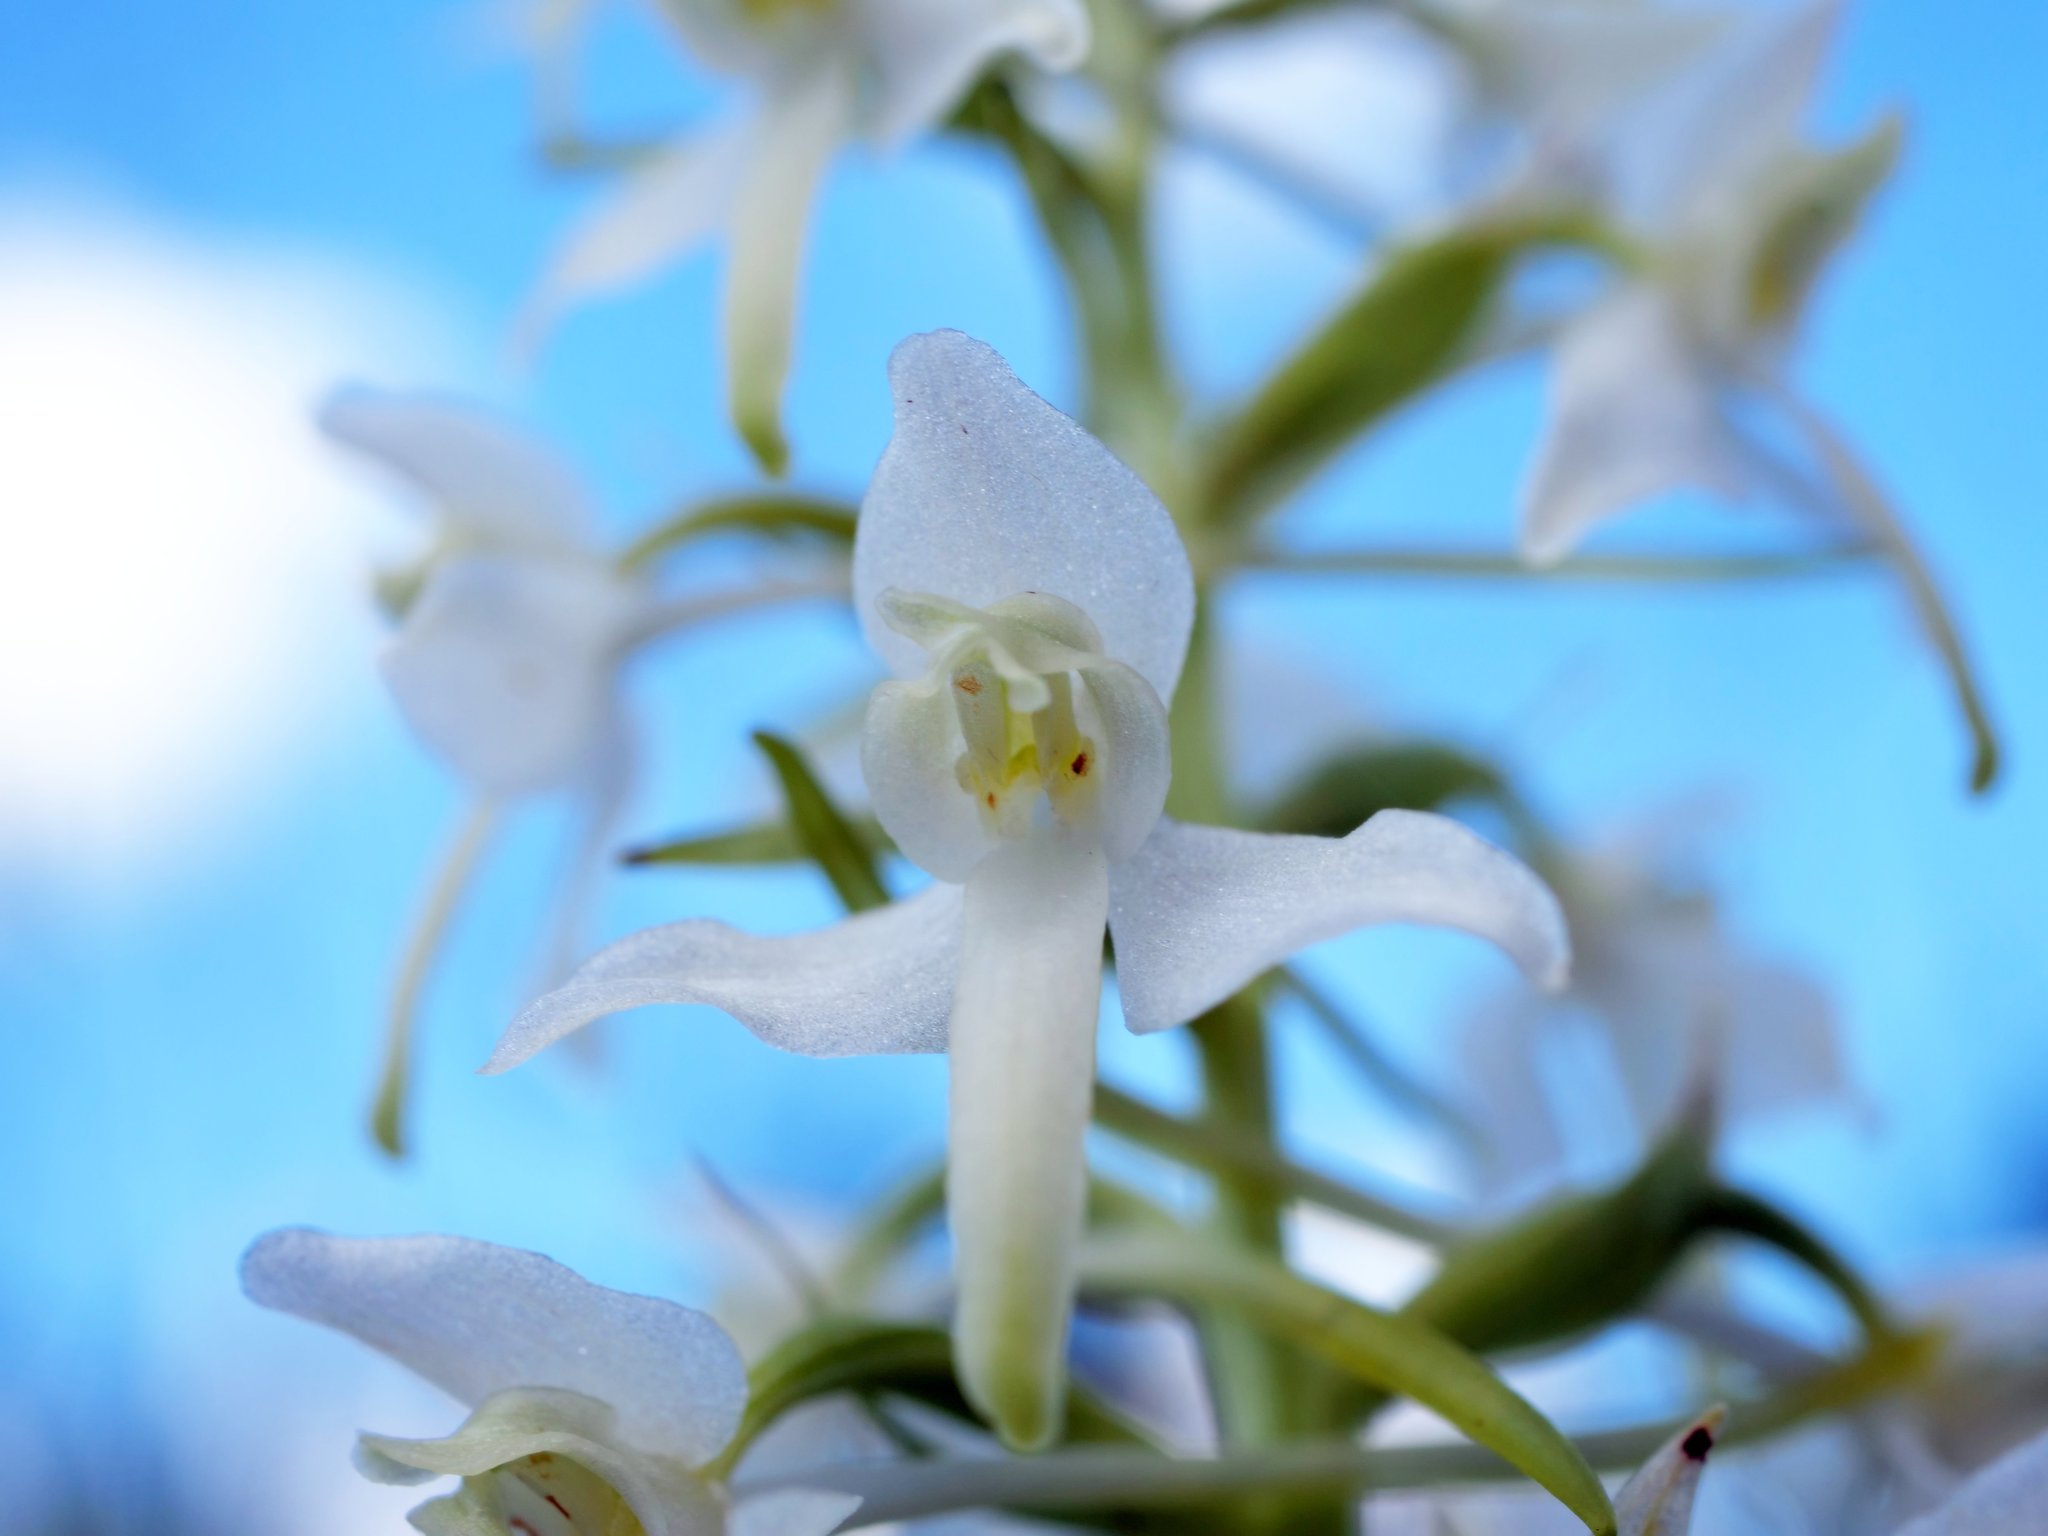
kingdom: Plantae
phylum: Tracheophyta
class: Liliopsida
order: Asparagales
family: Orchidaceae
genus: Platanthera
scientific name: Platanthera bifolia
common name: Lesser butterfly-orchid
